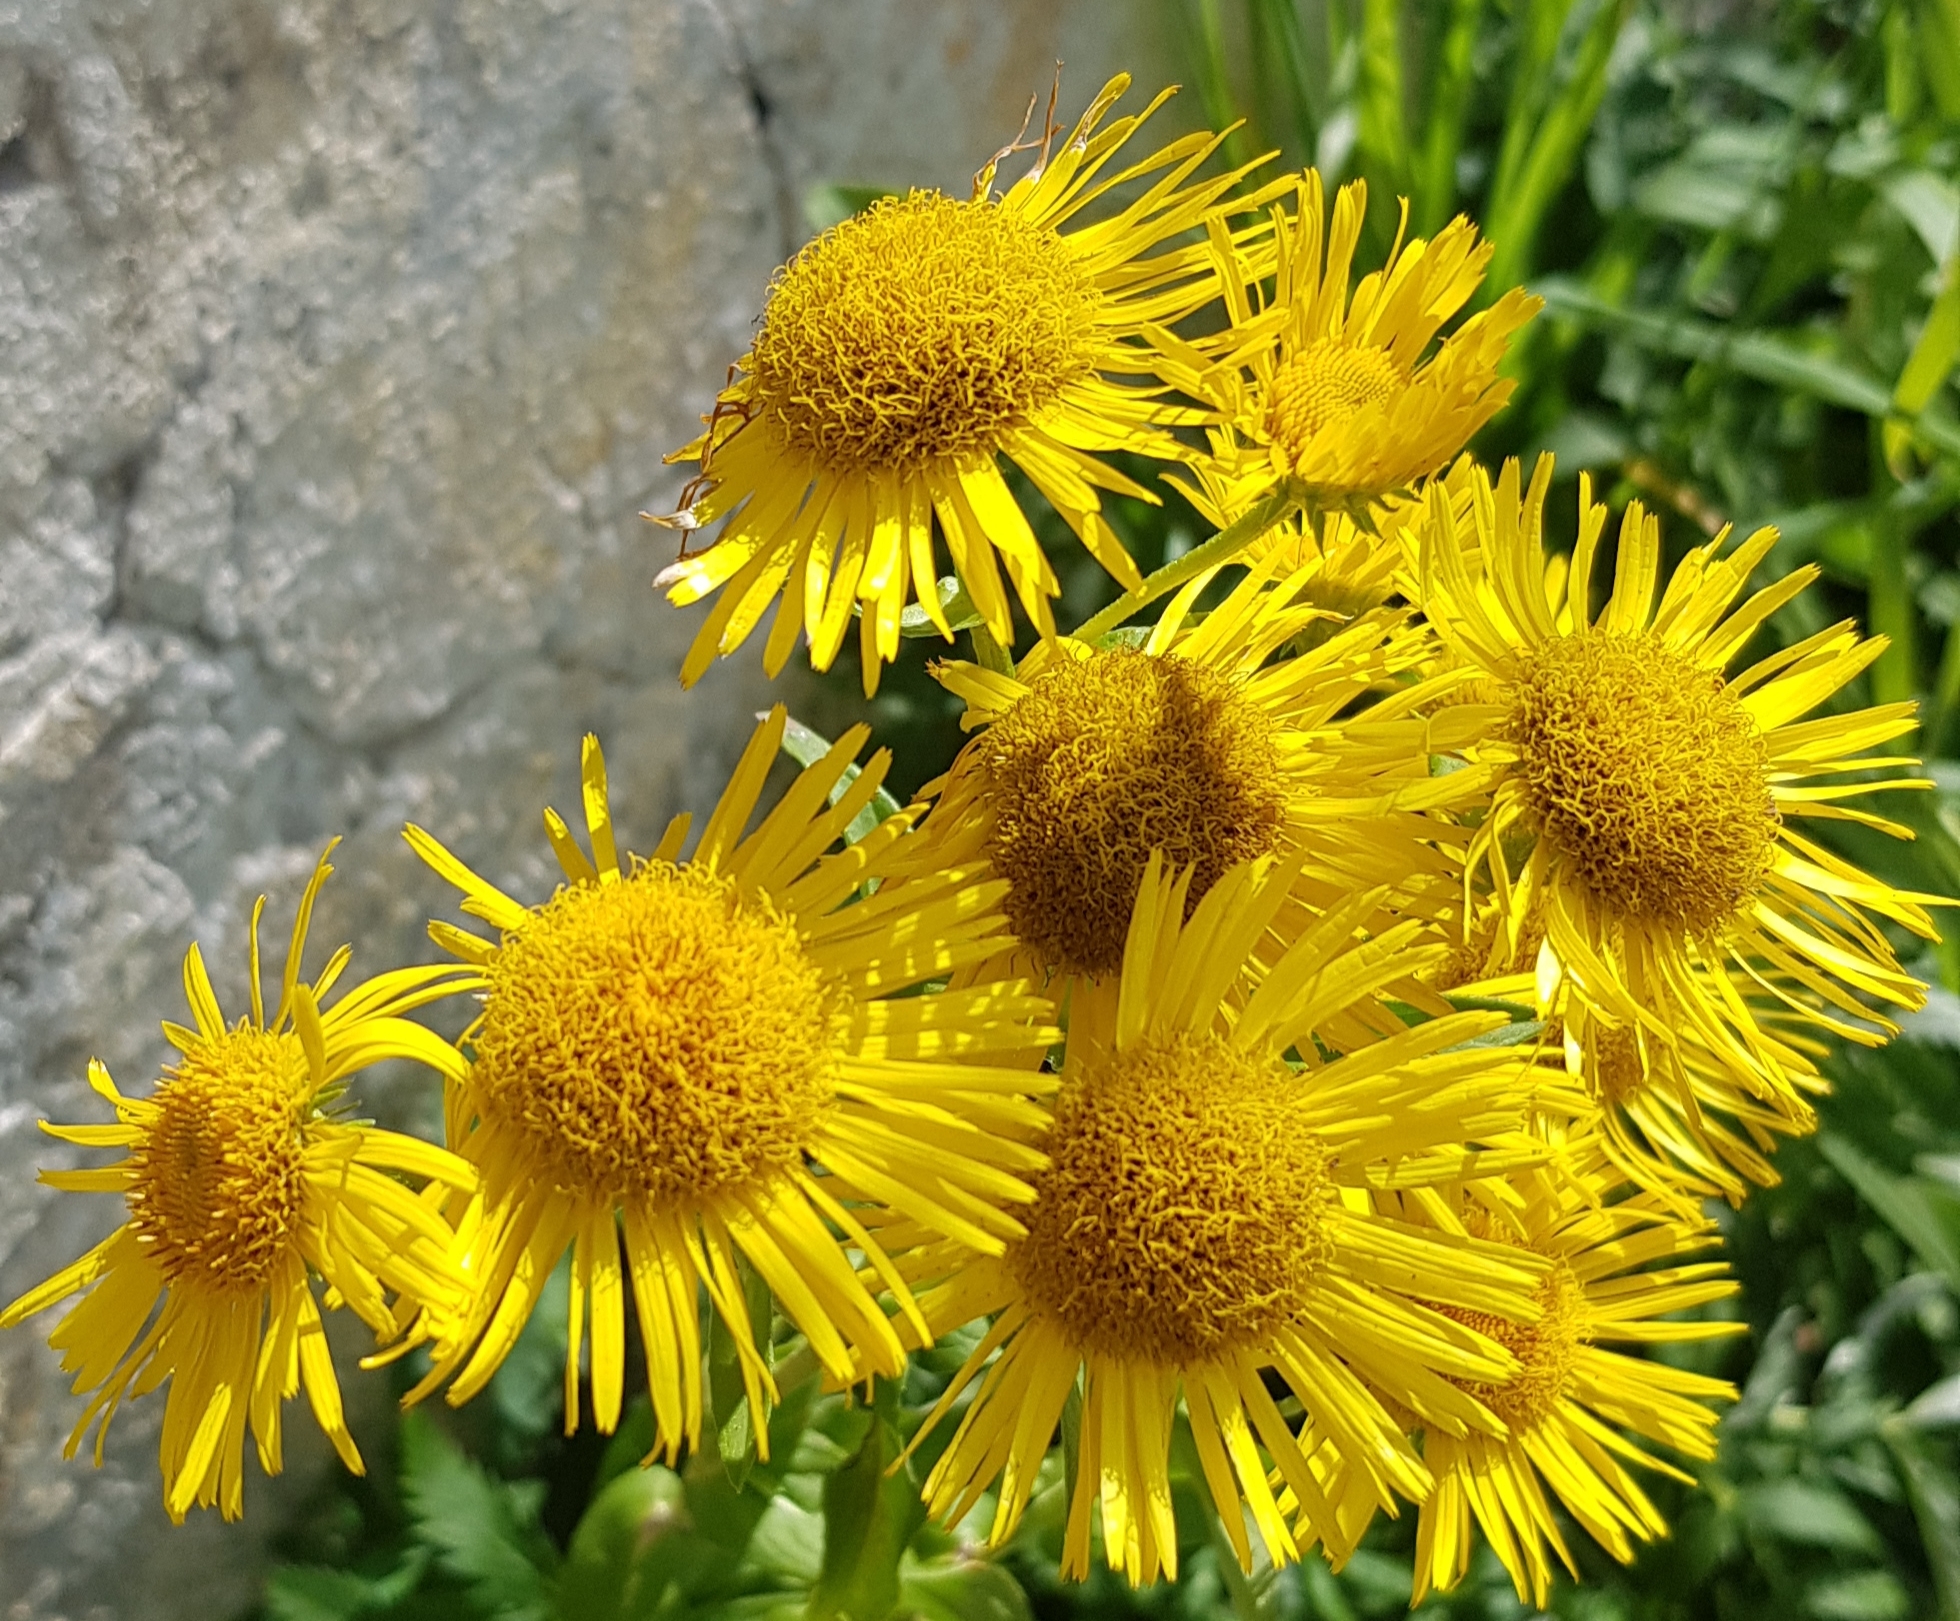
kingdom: Plantae
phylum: Tracheophyta
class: Magnoliopsida
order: Asterales
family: Asteraceae
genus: Pentanema
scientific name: Pentanema britannicum
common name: British elecampane
